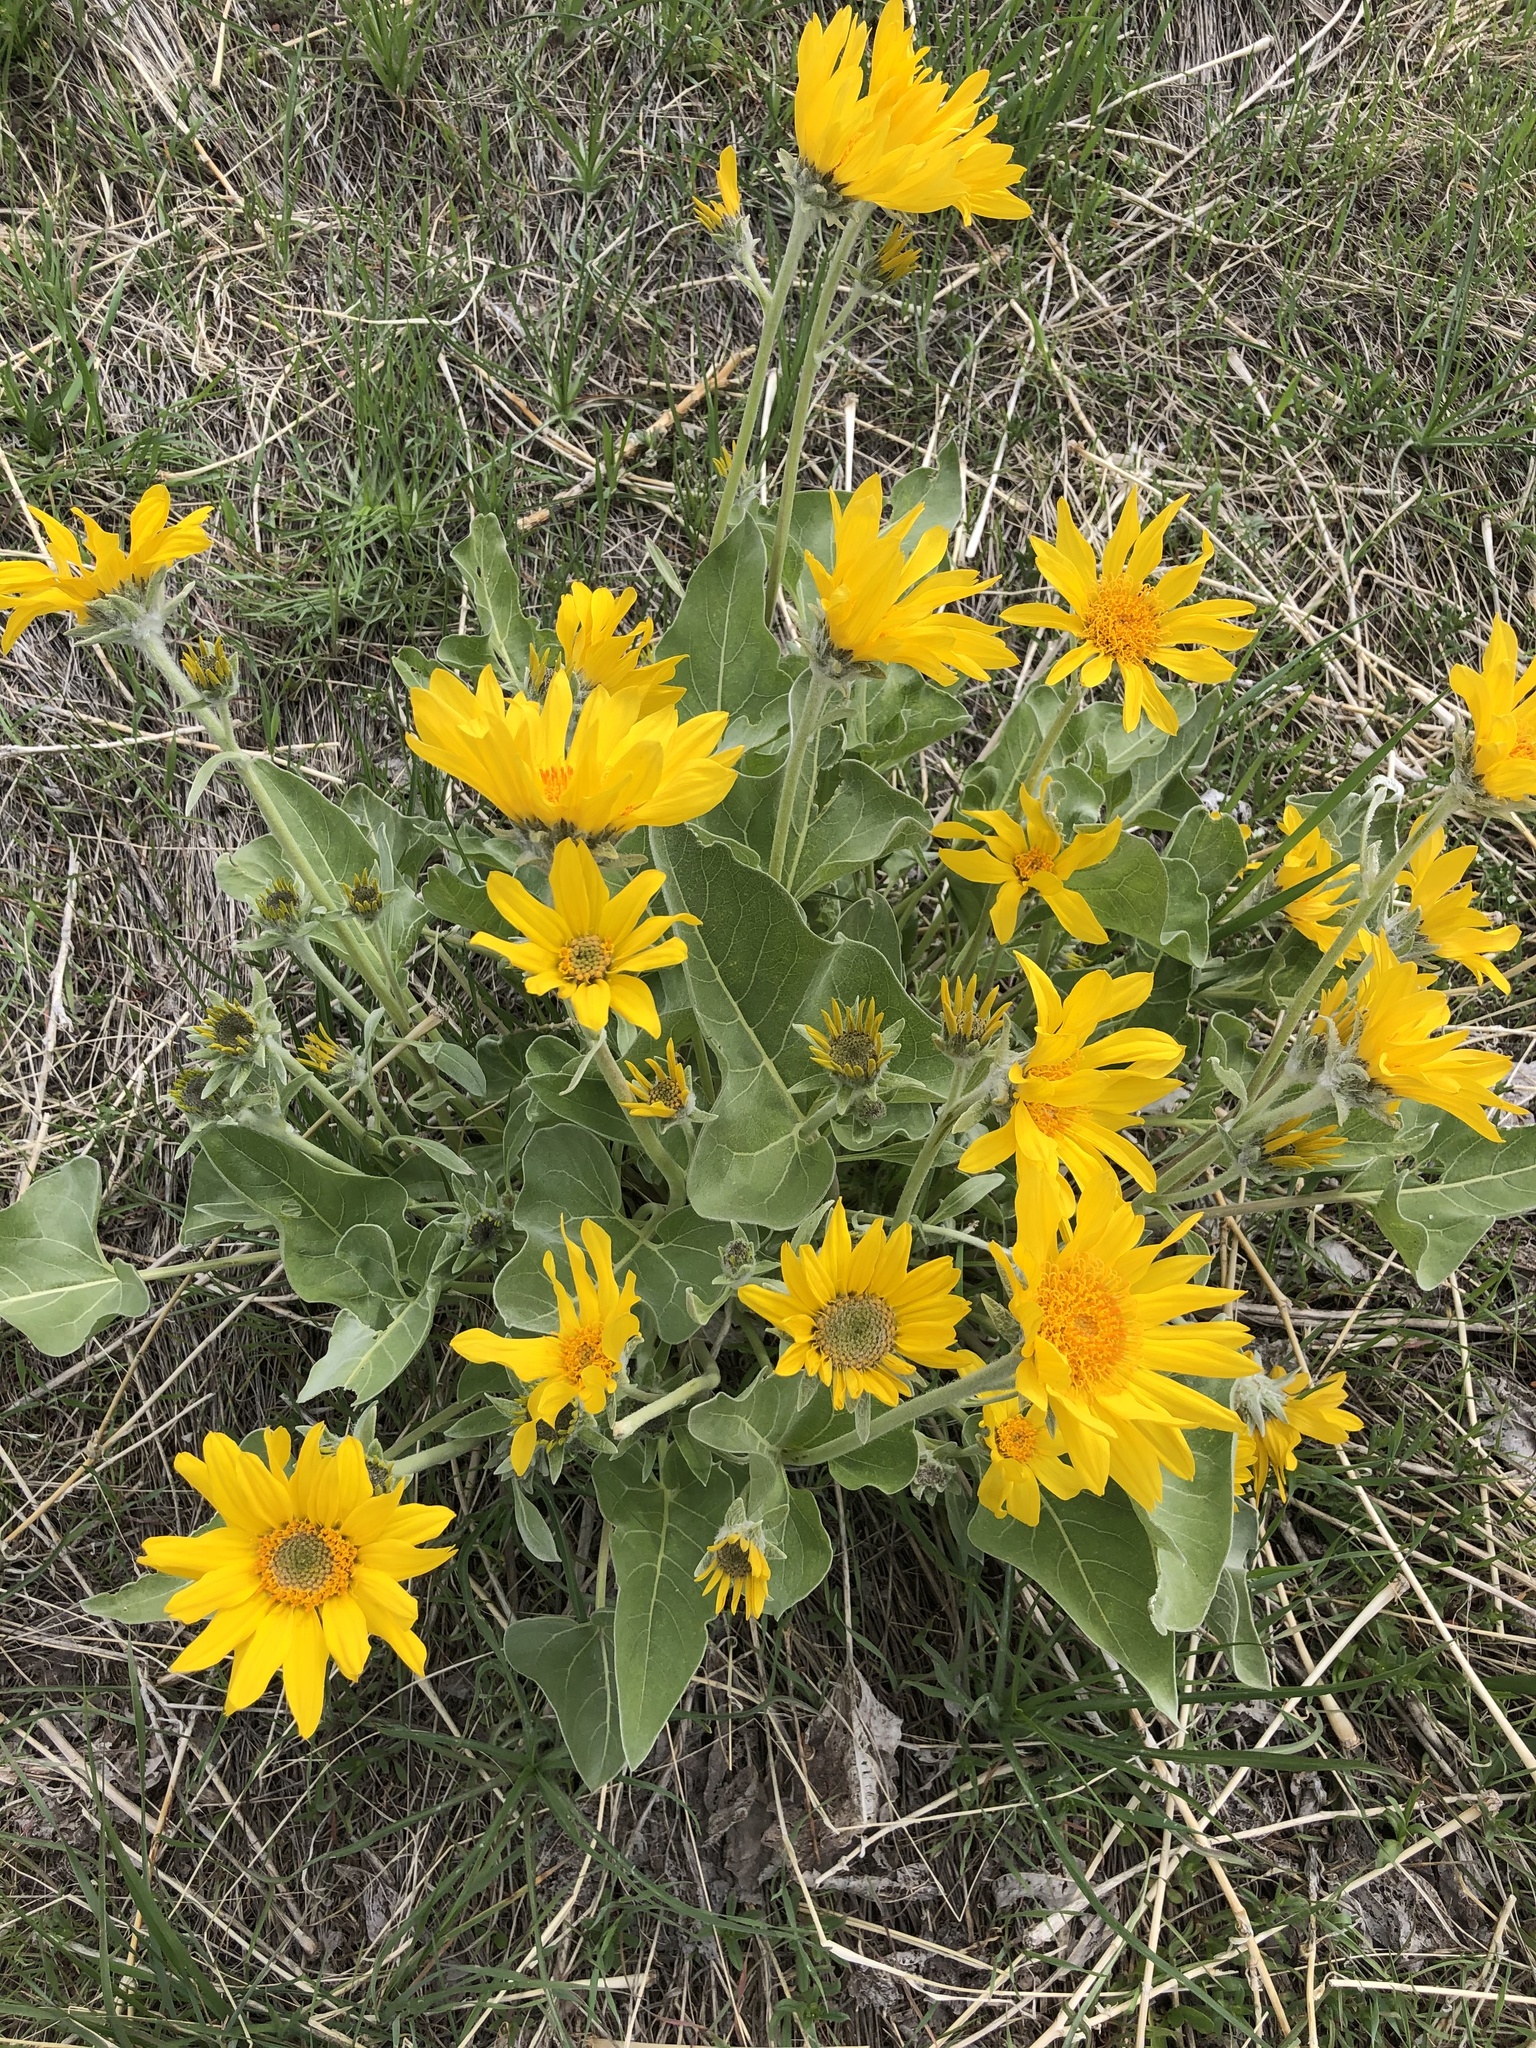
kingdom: Plantae
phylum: Tracheophyta
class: Magnoliopsida
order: Asterales
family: Asteraceae
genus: Wyethia
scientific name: Wyethia sagittata
